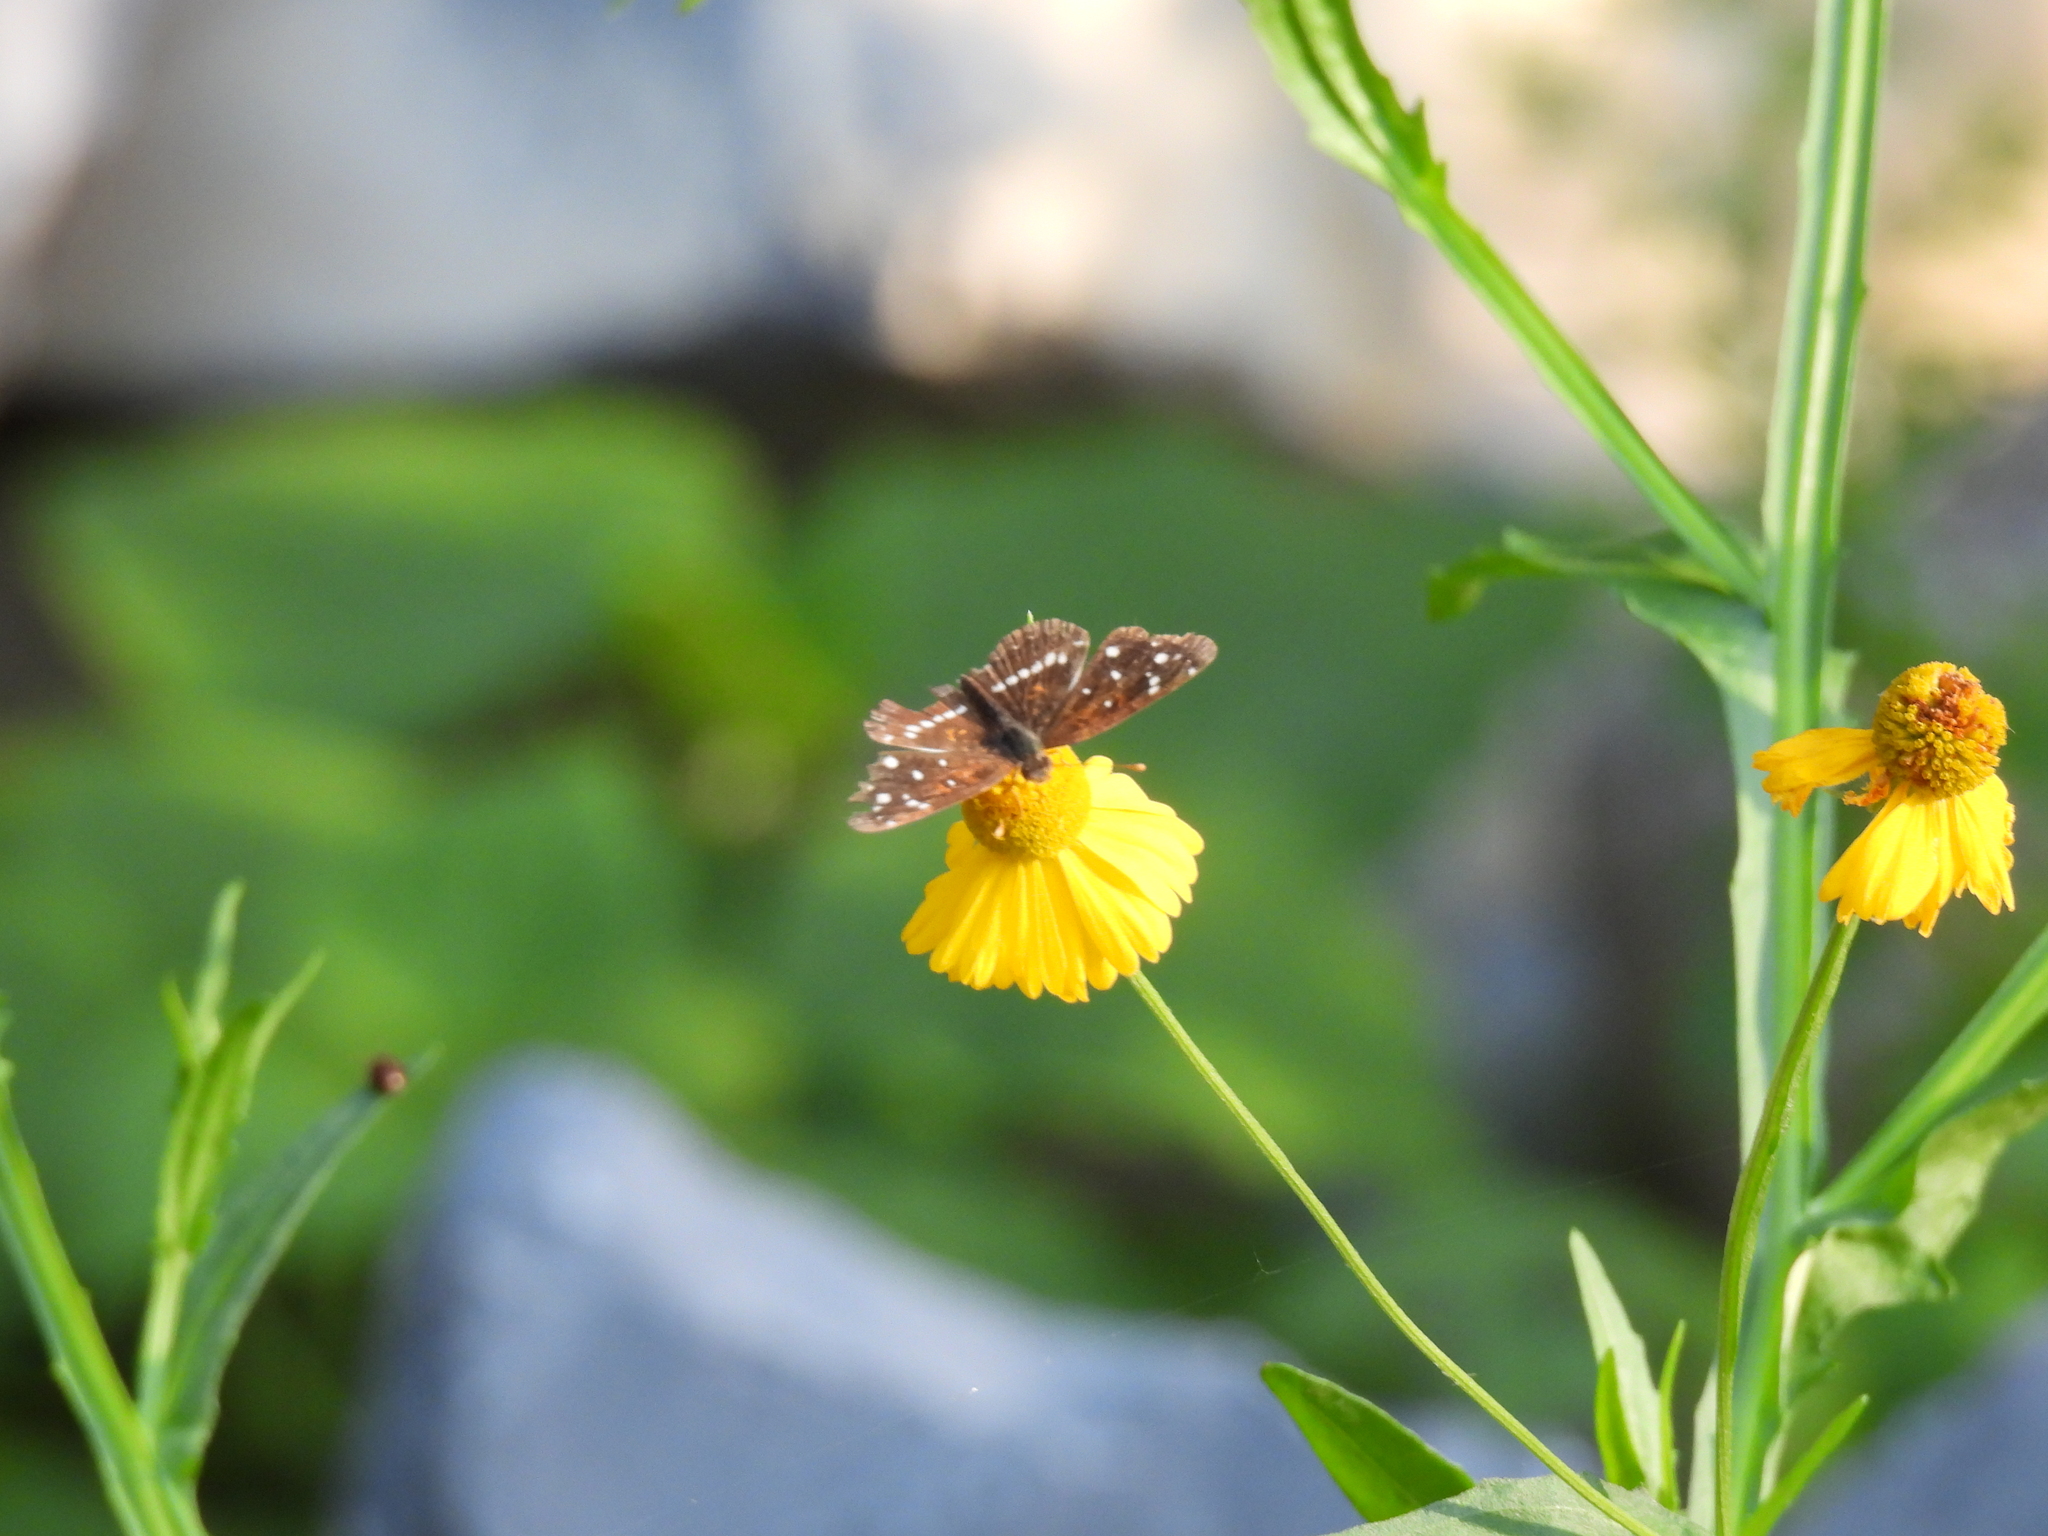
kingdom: Animalia
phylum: Arthropoda
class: Insecta
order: Lepidoptera
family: Nymphalidae
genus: Anthanassa
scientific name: Anthanassa texana
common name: Texan crescent
